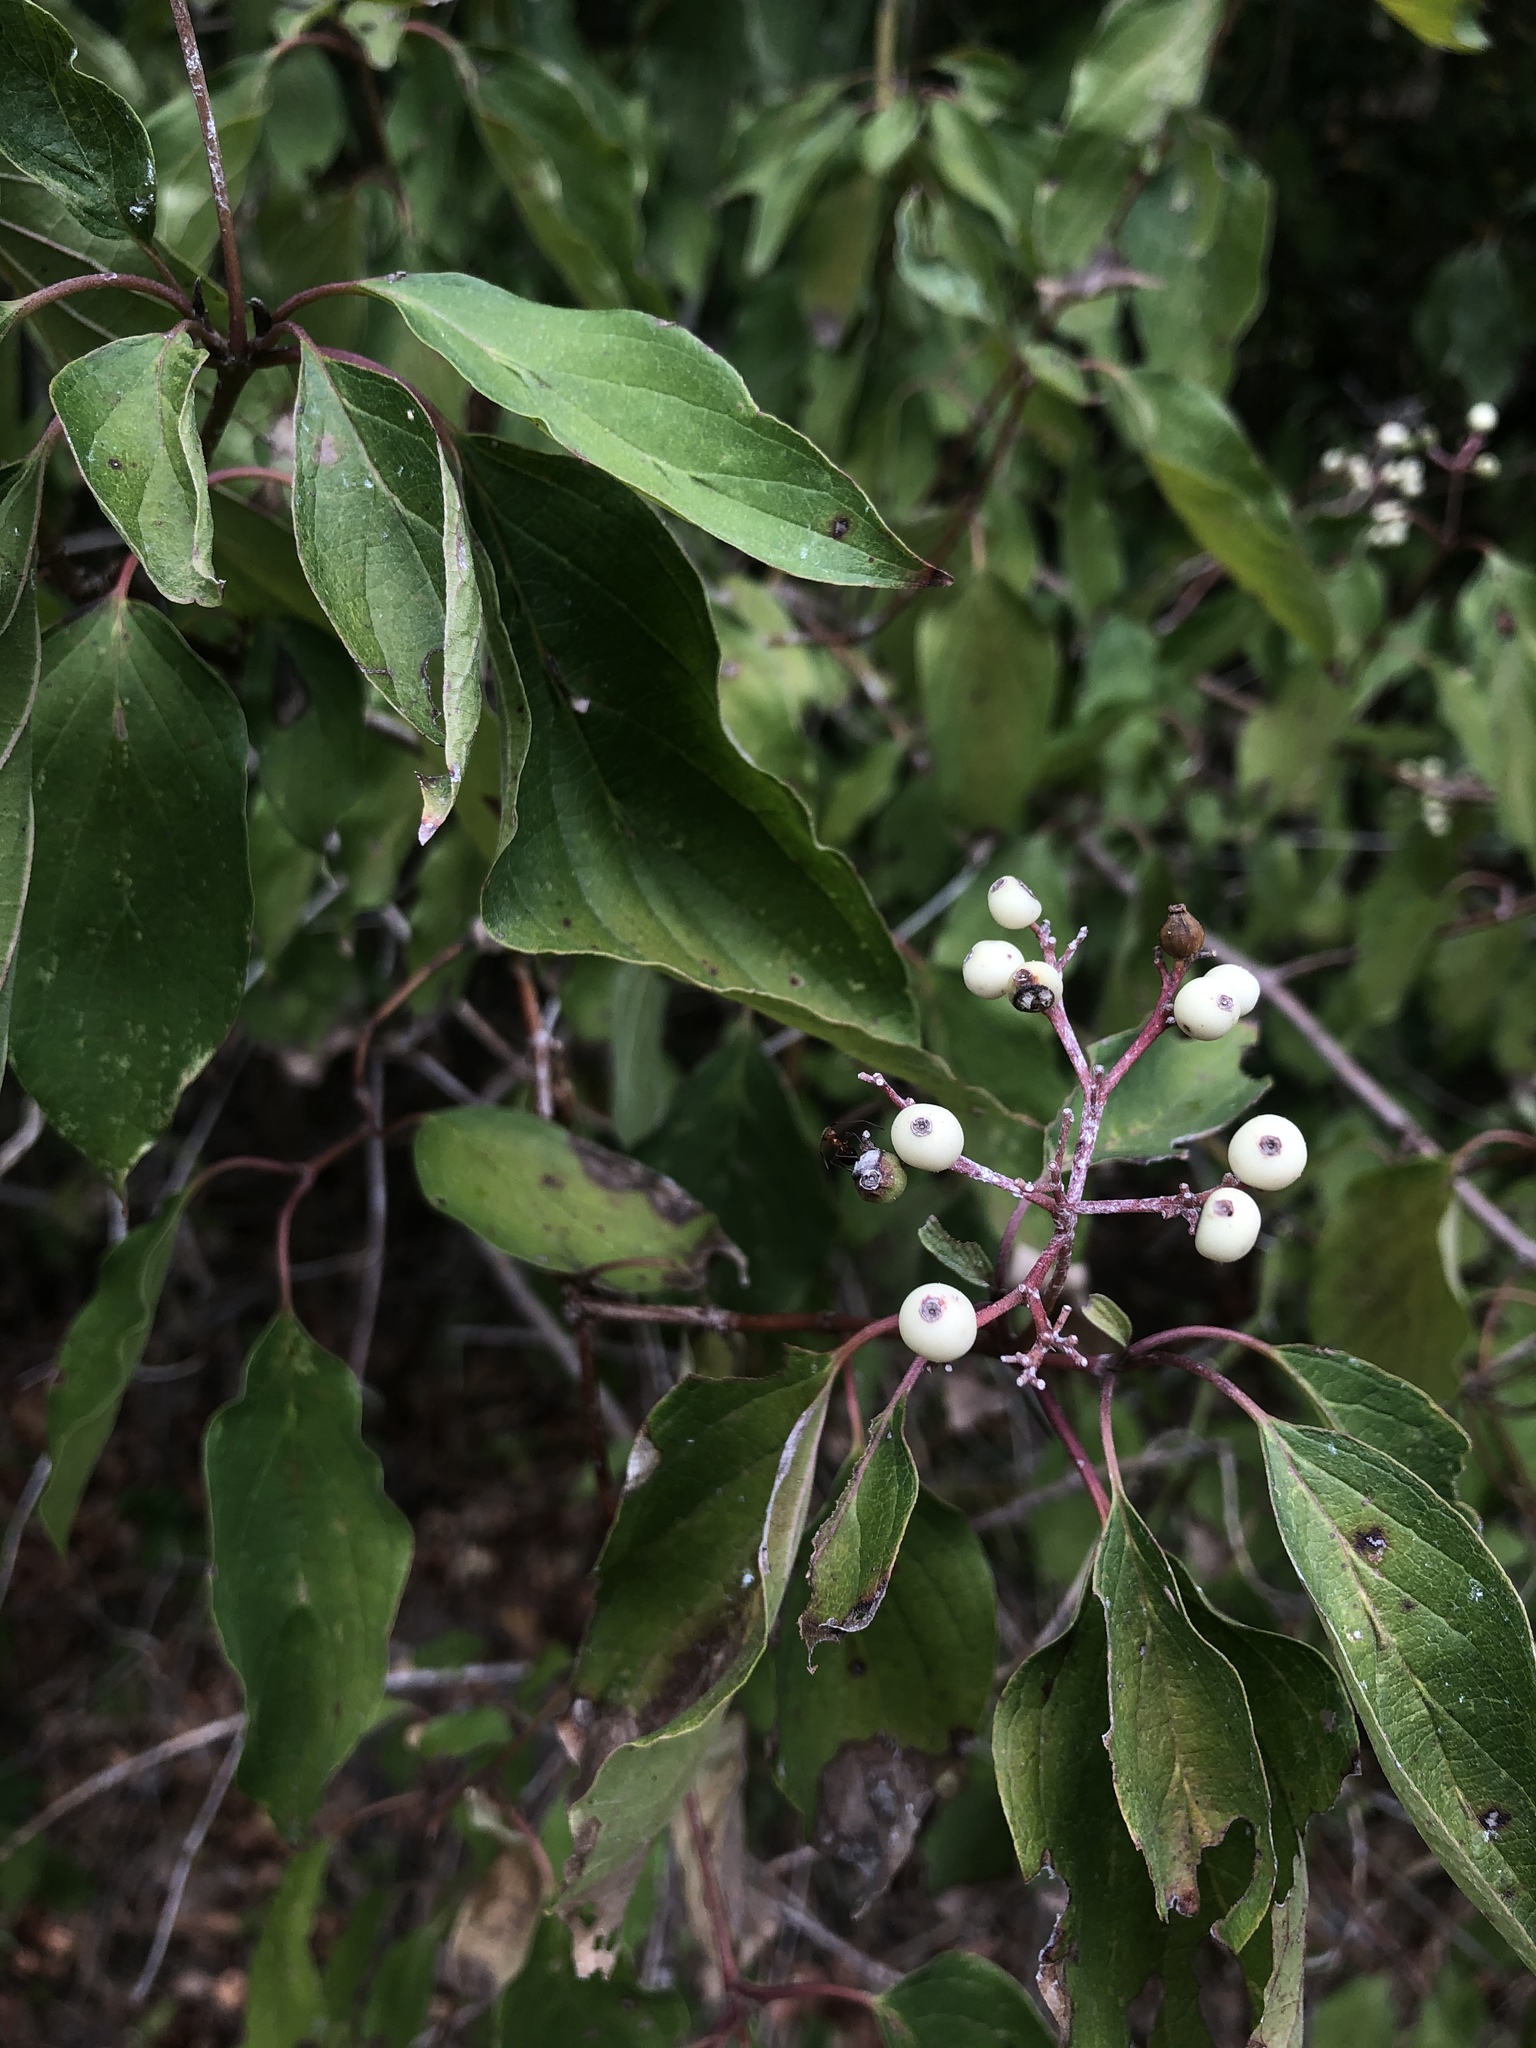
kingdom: Plantae
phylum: Tracheophyta
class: Magnoliopsida
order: Cornales
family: Cornaceae
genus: Cornus
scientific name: Cornus drummondii
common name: Rough-leaf dogwood
